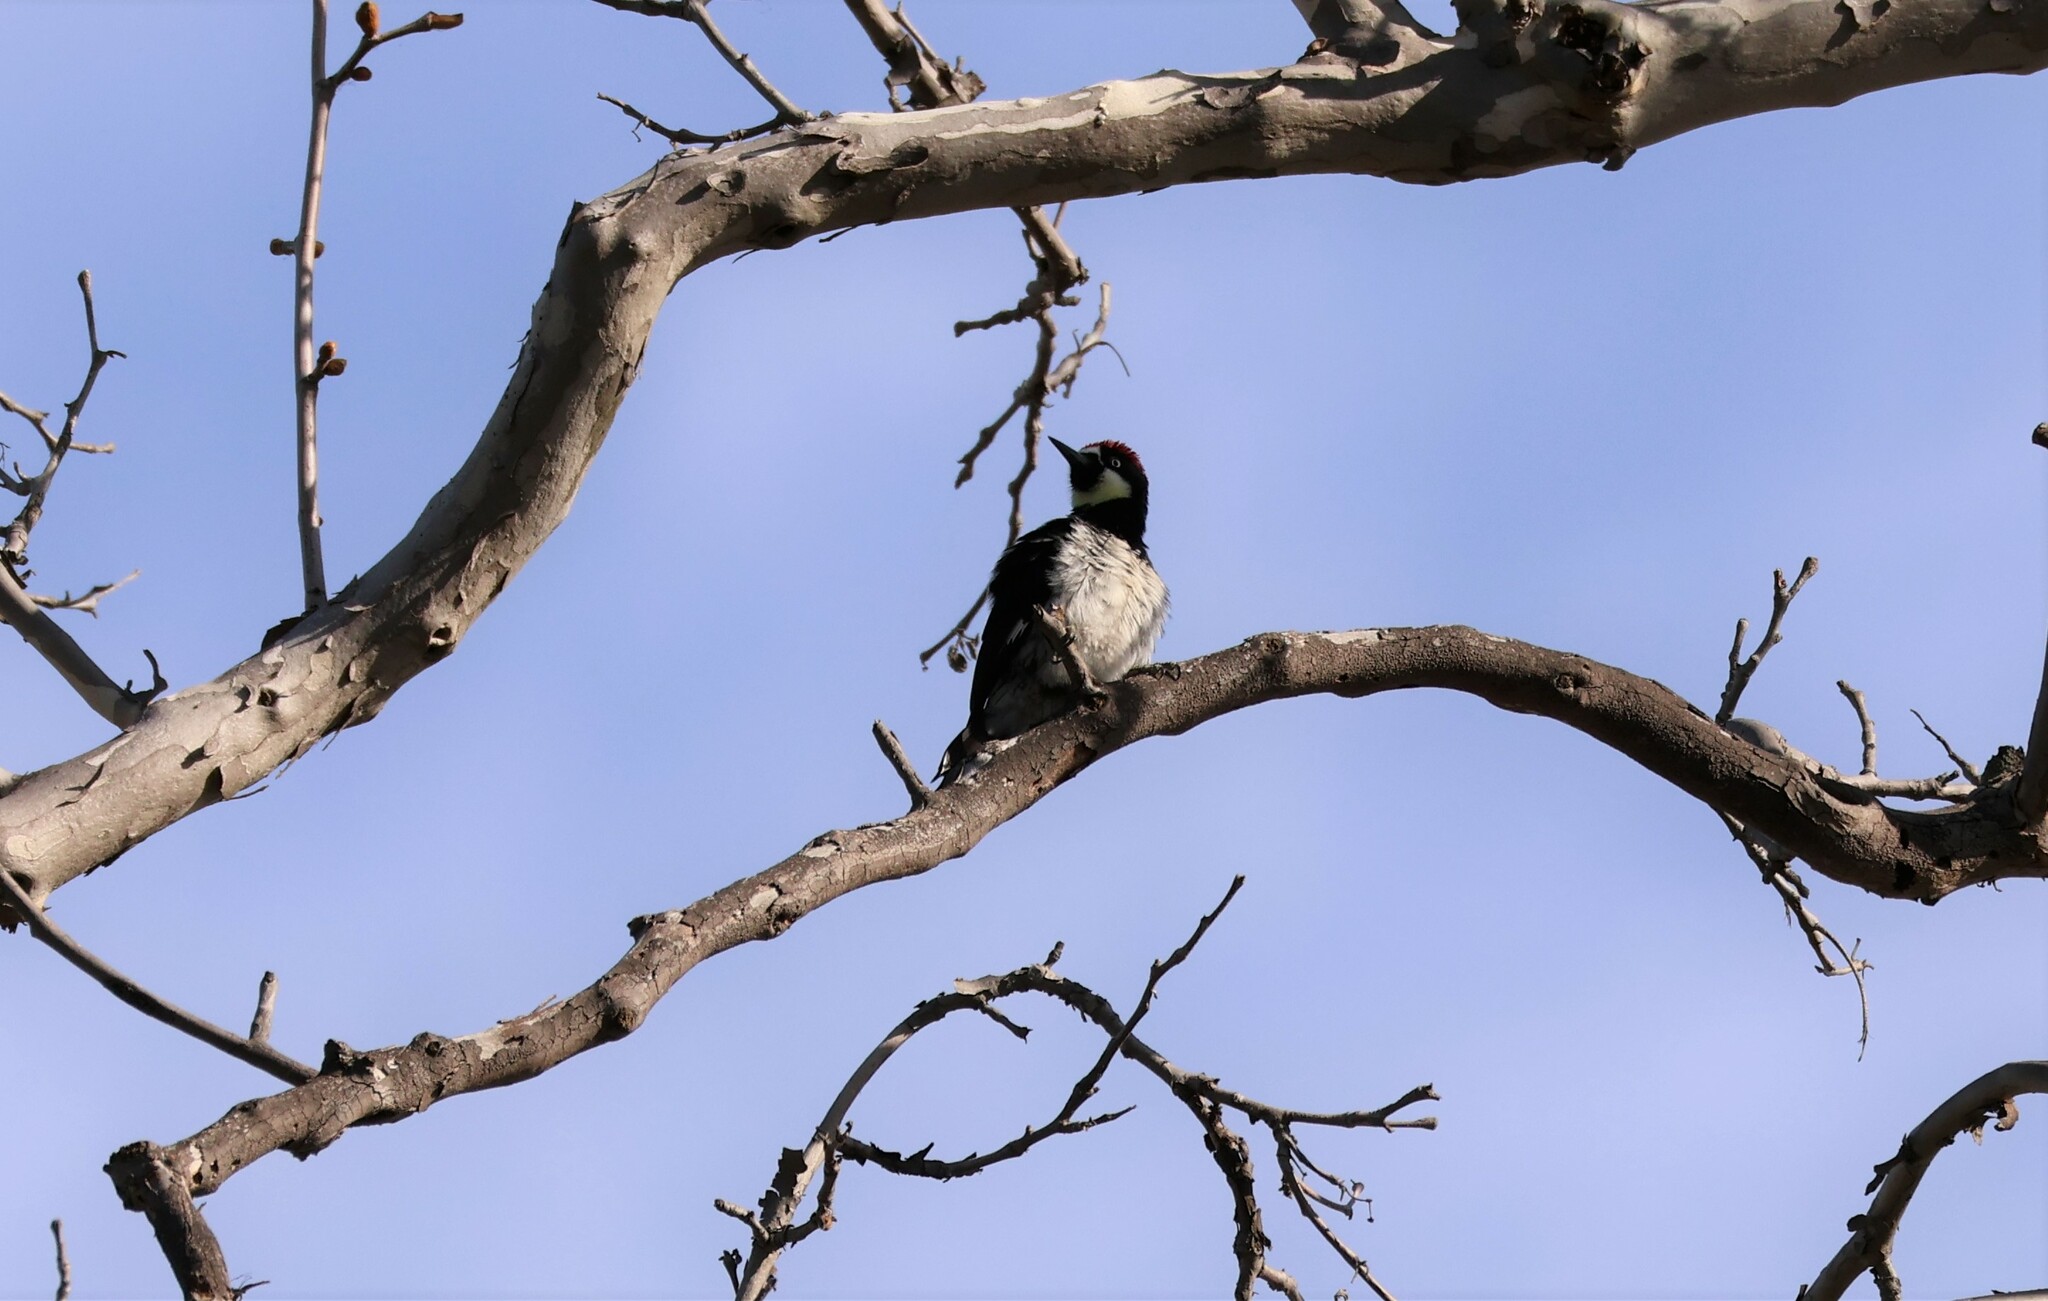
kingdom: Animalia
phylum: Chordata
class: Aves
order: Piciformes
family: Picidae
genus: Melanerpes
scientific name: Melanerpes formicivorus
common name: Acorn woodpecker
